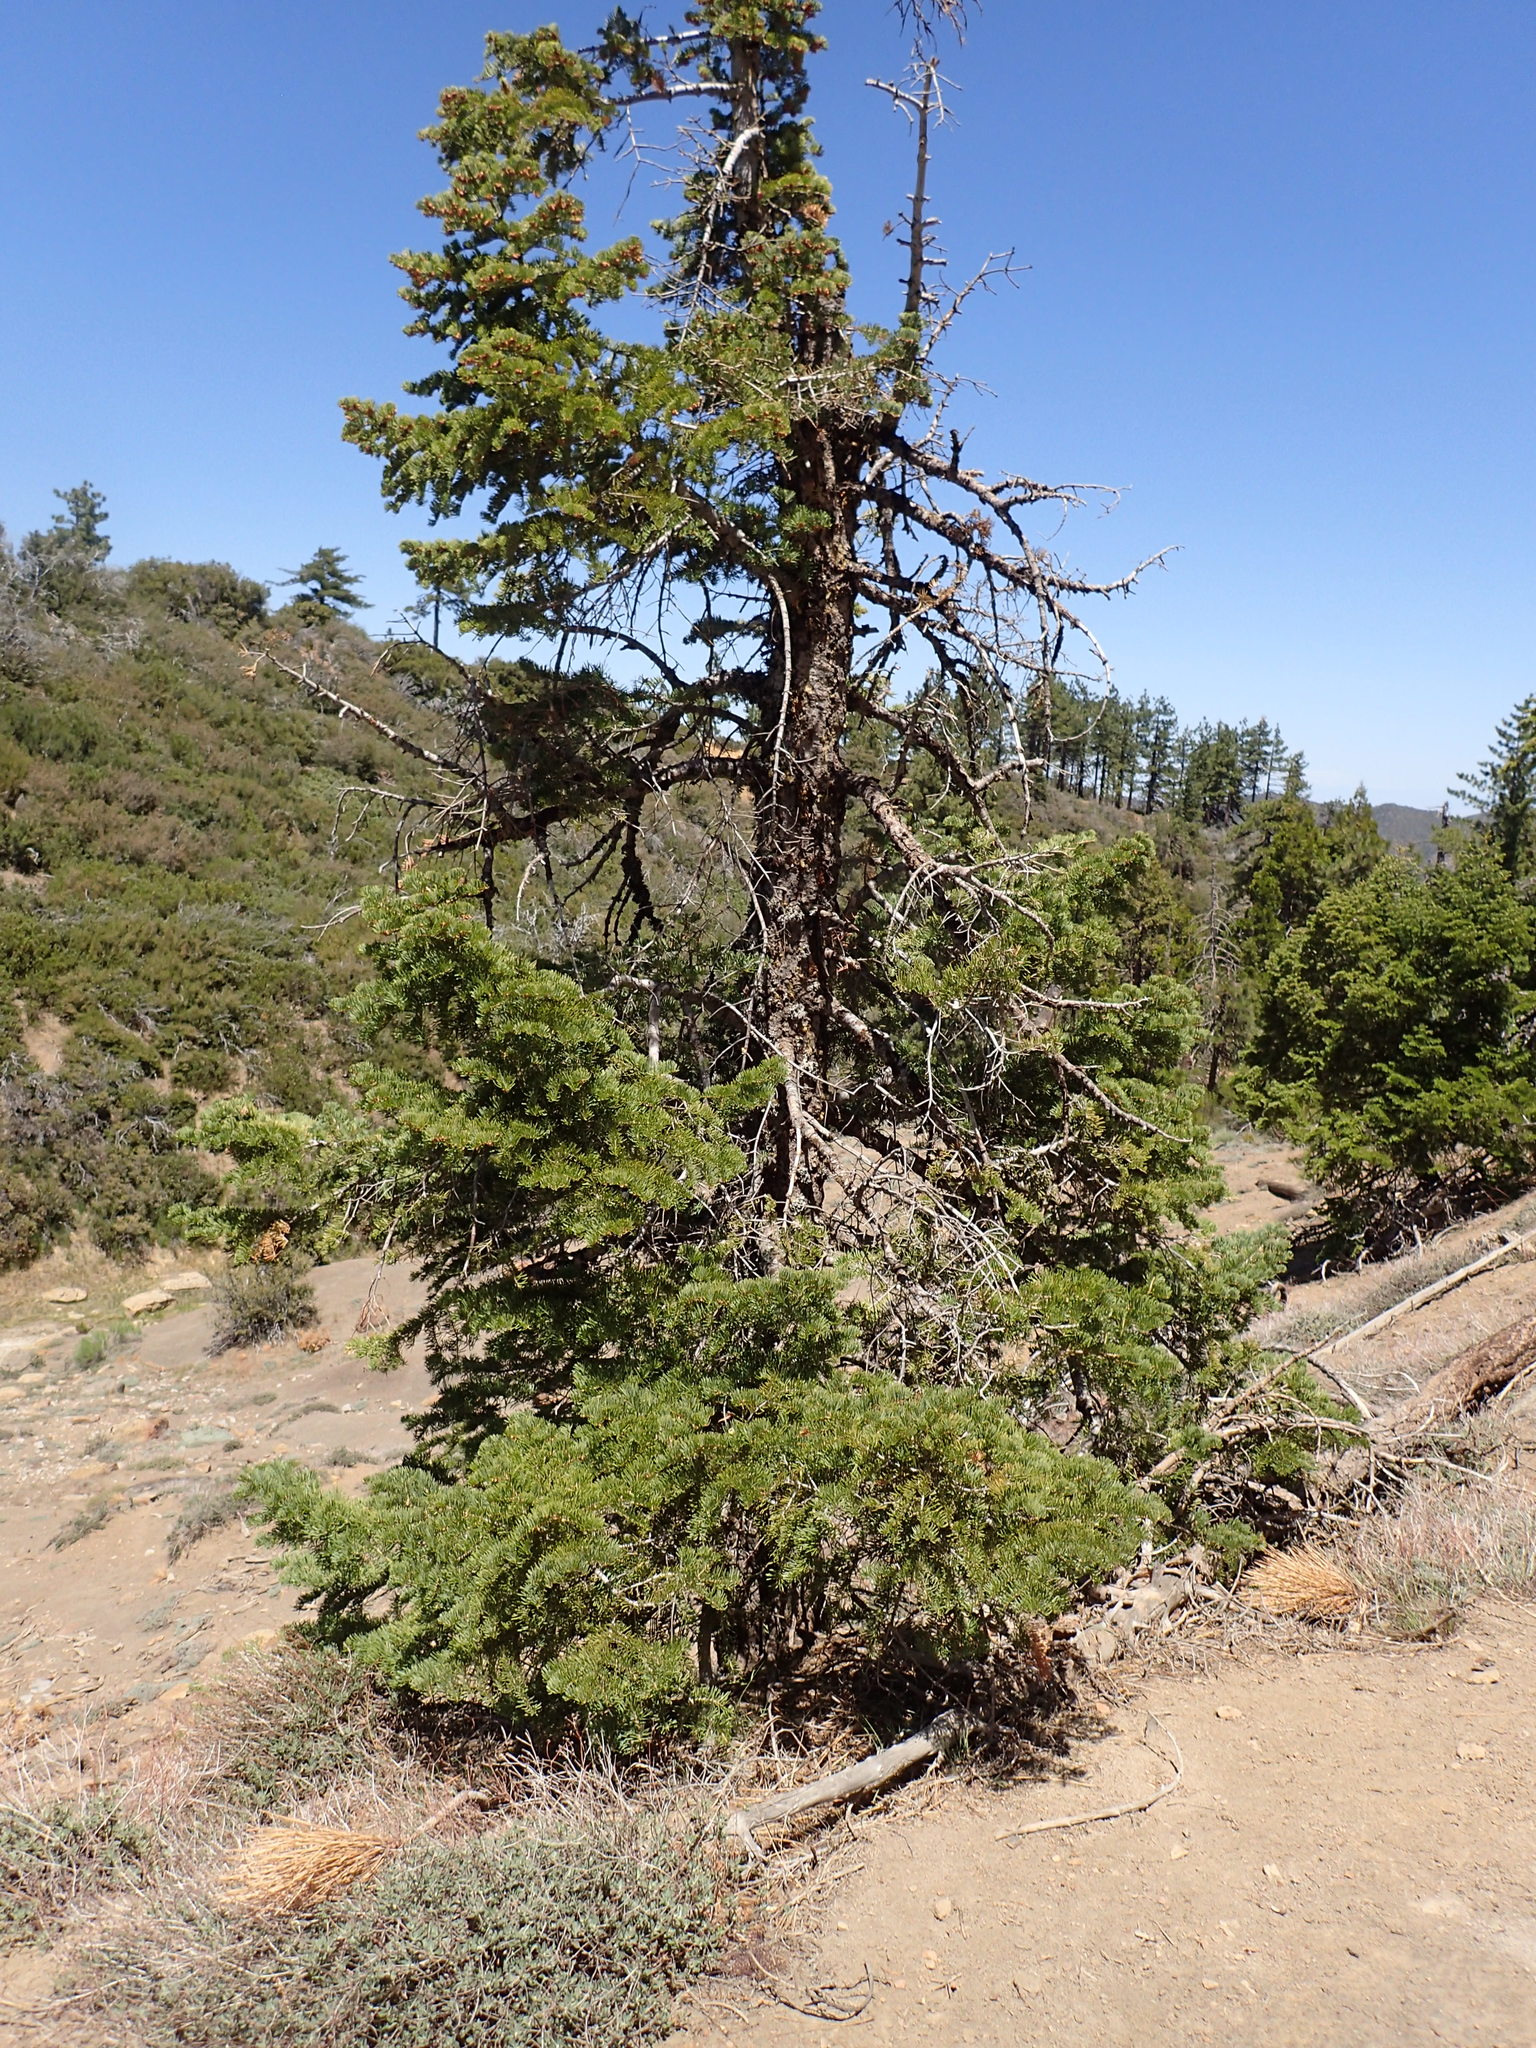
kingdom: Plantae
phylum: Tracheophyta
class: Pinopsida
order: Pinales
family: Pinaceae
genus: Abies
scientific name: Abies concolor
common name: Colorado fir
